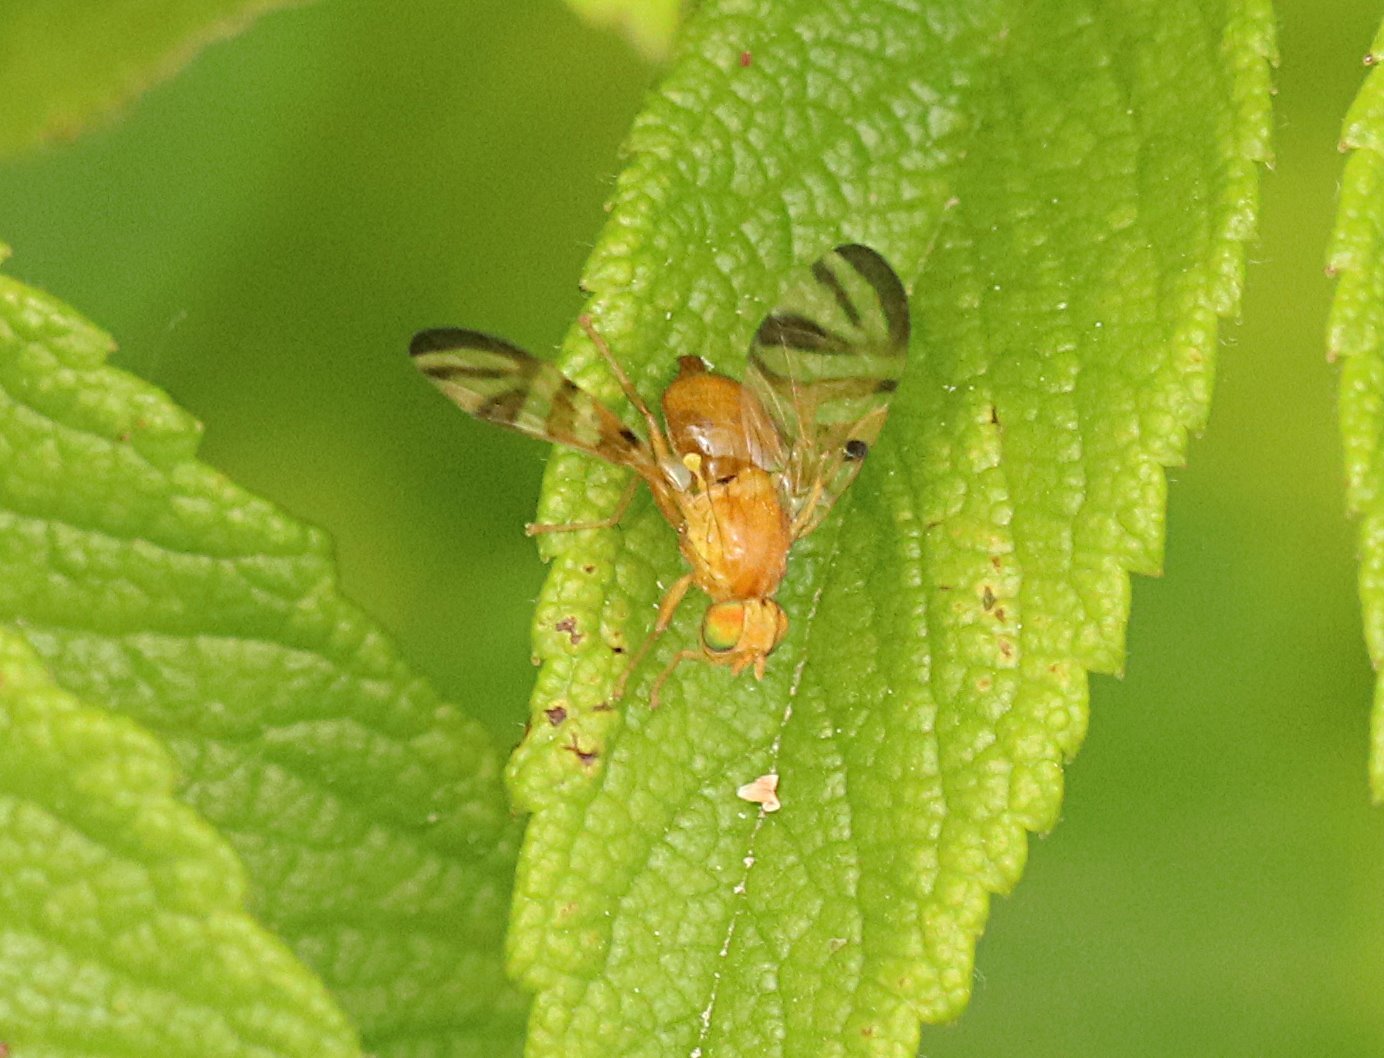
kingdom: Animalia
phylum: Arthropoda
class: Insecta
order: Diptera
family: Tephritidae
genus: Myoleja
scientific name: Myoleja lucida
